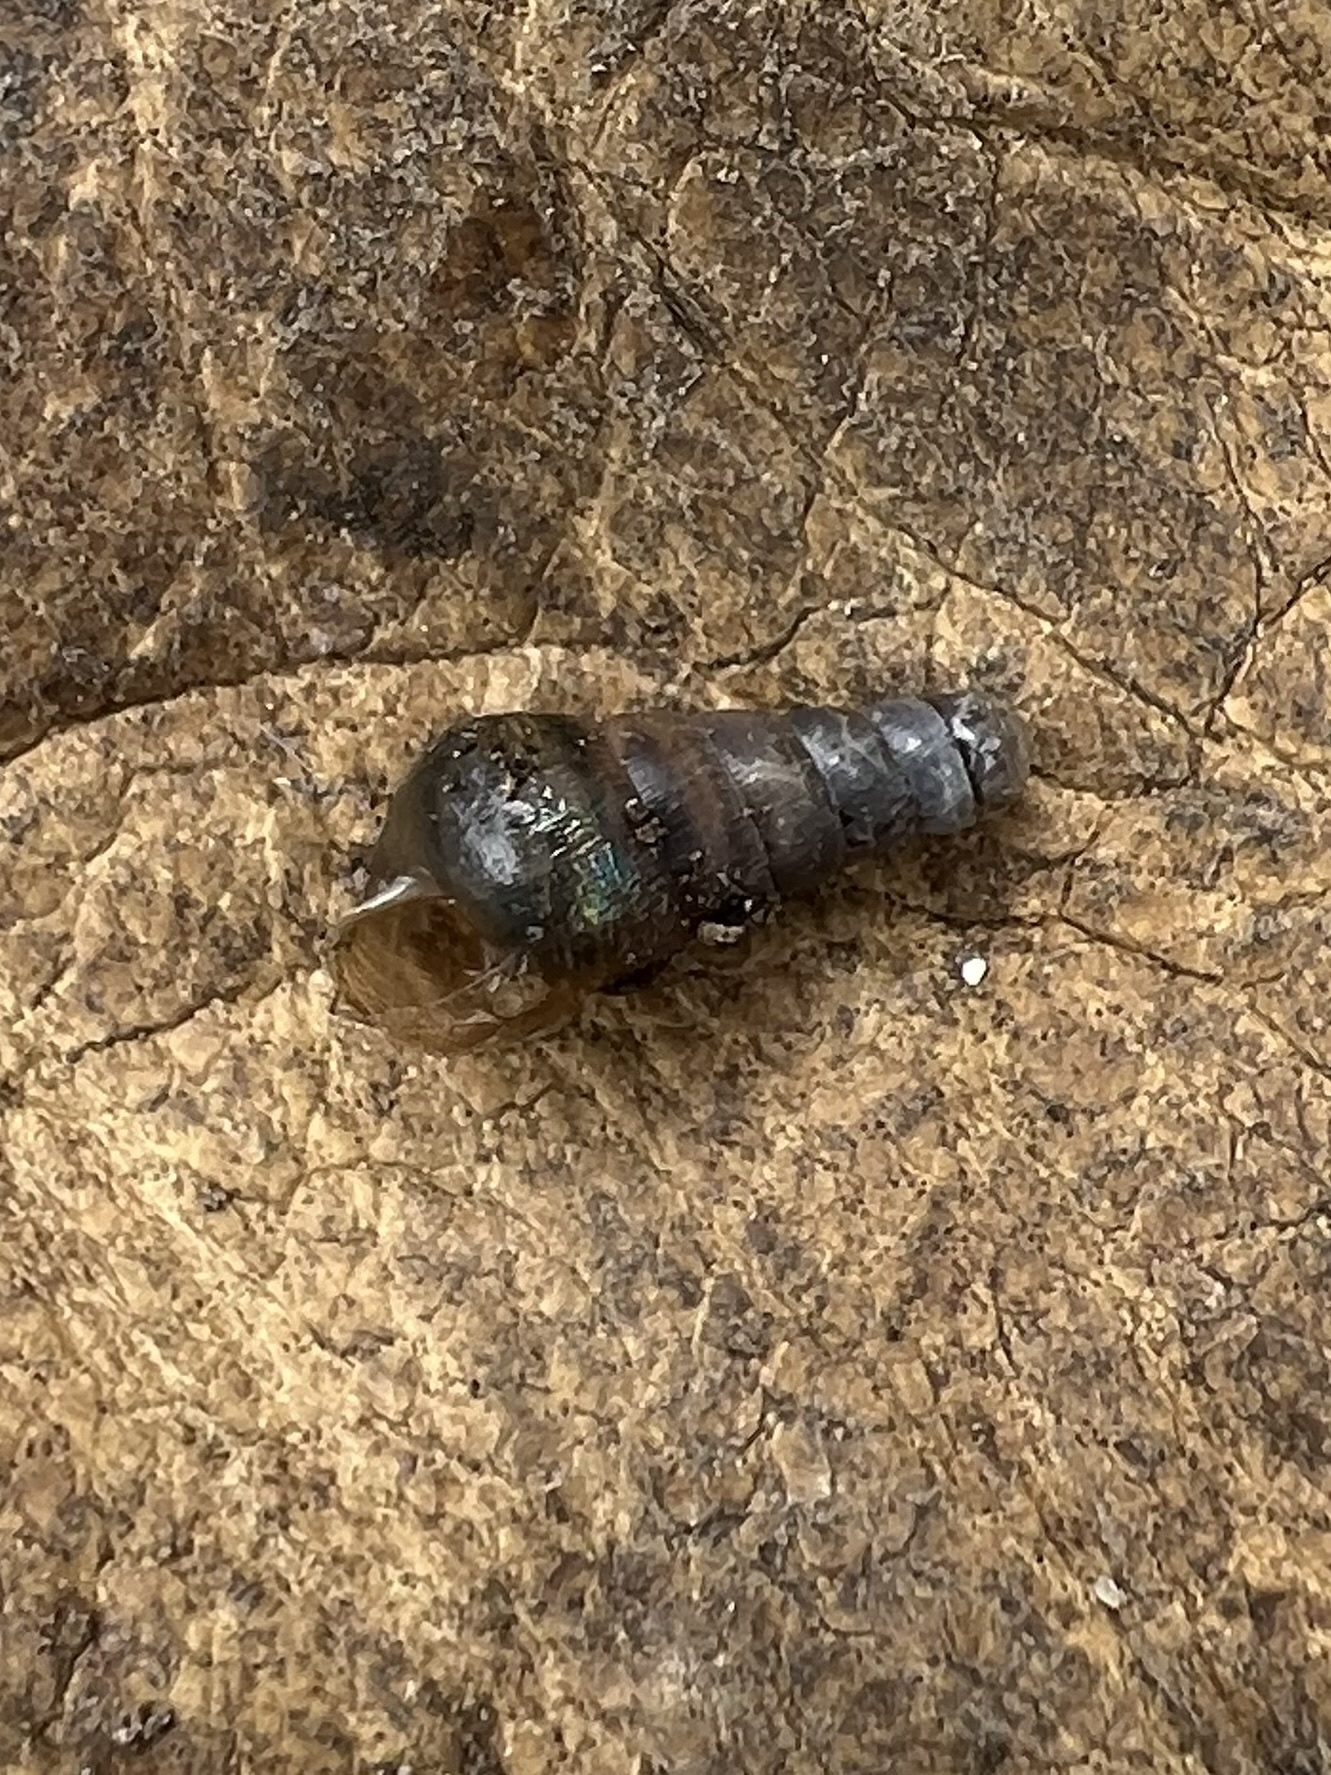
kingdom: Animalia
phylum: Mollusca
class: Gastropoda
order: Stylommatophora
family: Achatinidae
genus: Rumina
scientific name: Rumina decollata
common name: Decollate snail
